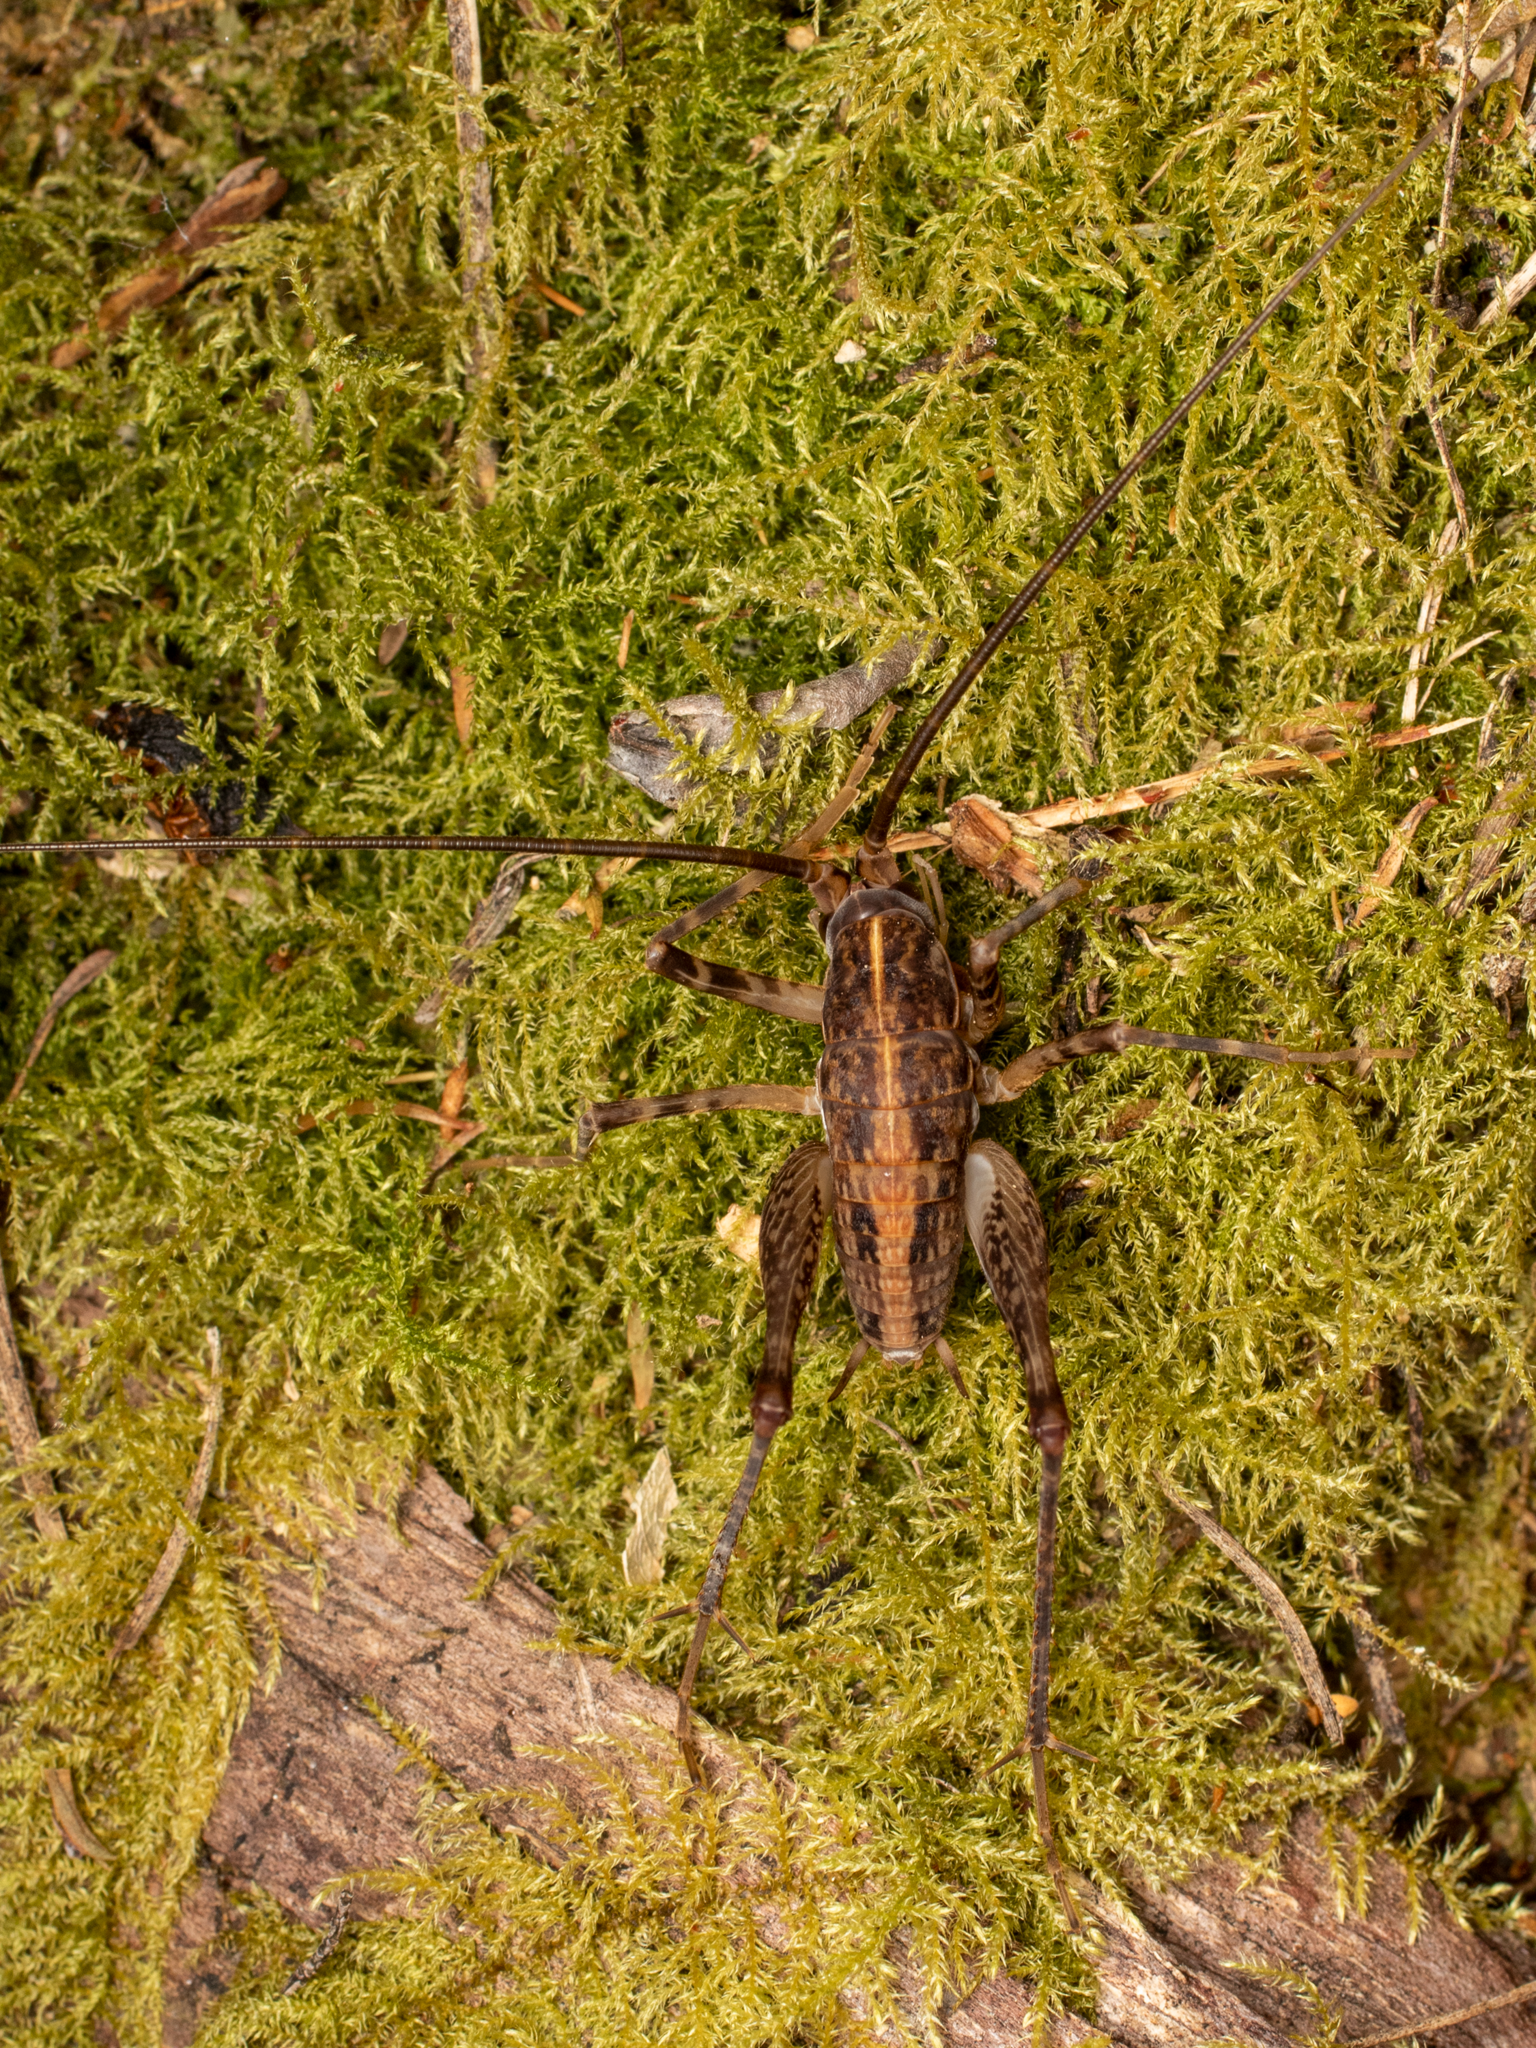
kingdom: Animalia
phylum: Arthropoda
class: Insecta
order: Orthoptera
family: Rhaphidophoridae
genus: Pleioplectron
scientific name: Pleioplectron simplex
